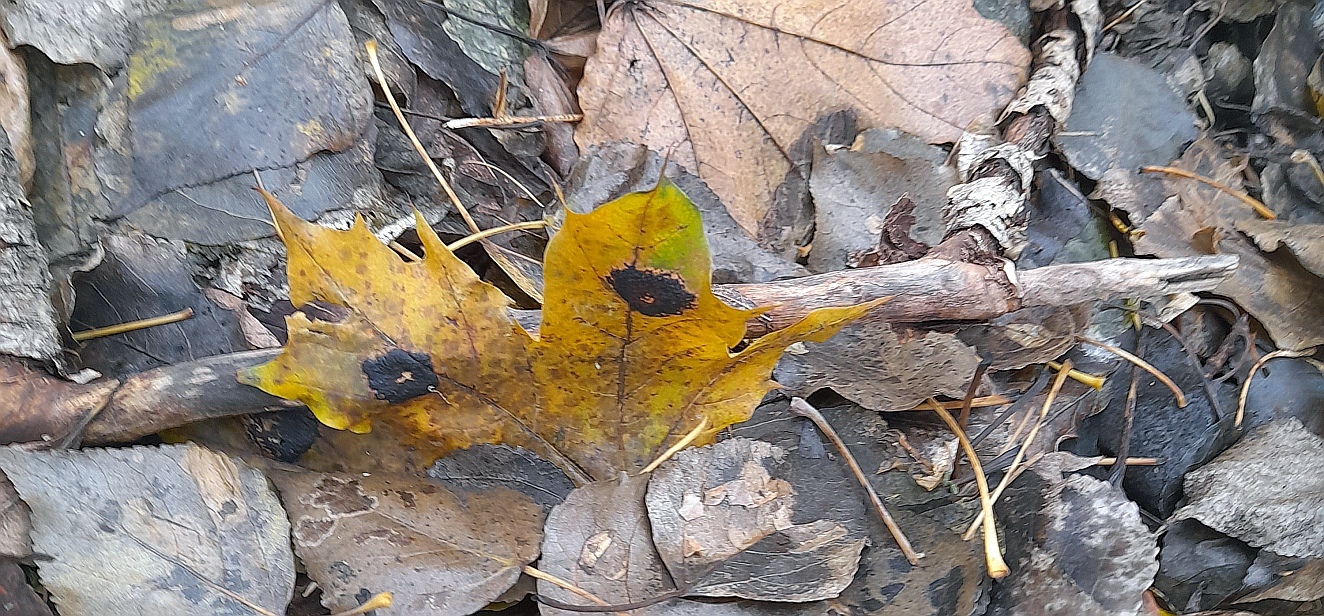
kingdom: Fungi
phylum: Ascomycota
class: Leotiomycetes
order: Rhytismatales
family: Rhytismataceae
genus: Rhytisma
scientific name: Rhytisma acerinum
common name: European tar spot
